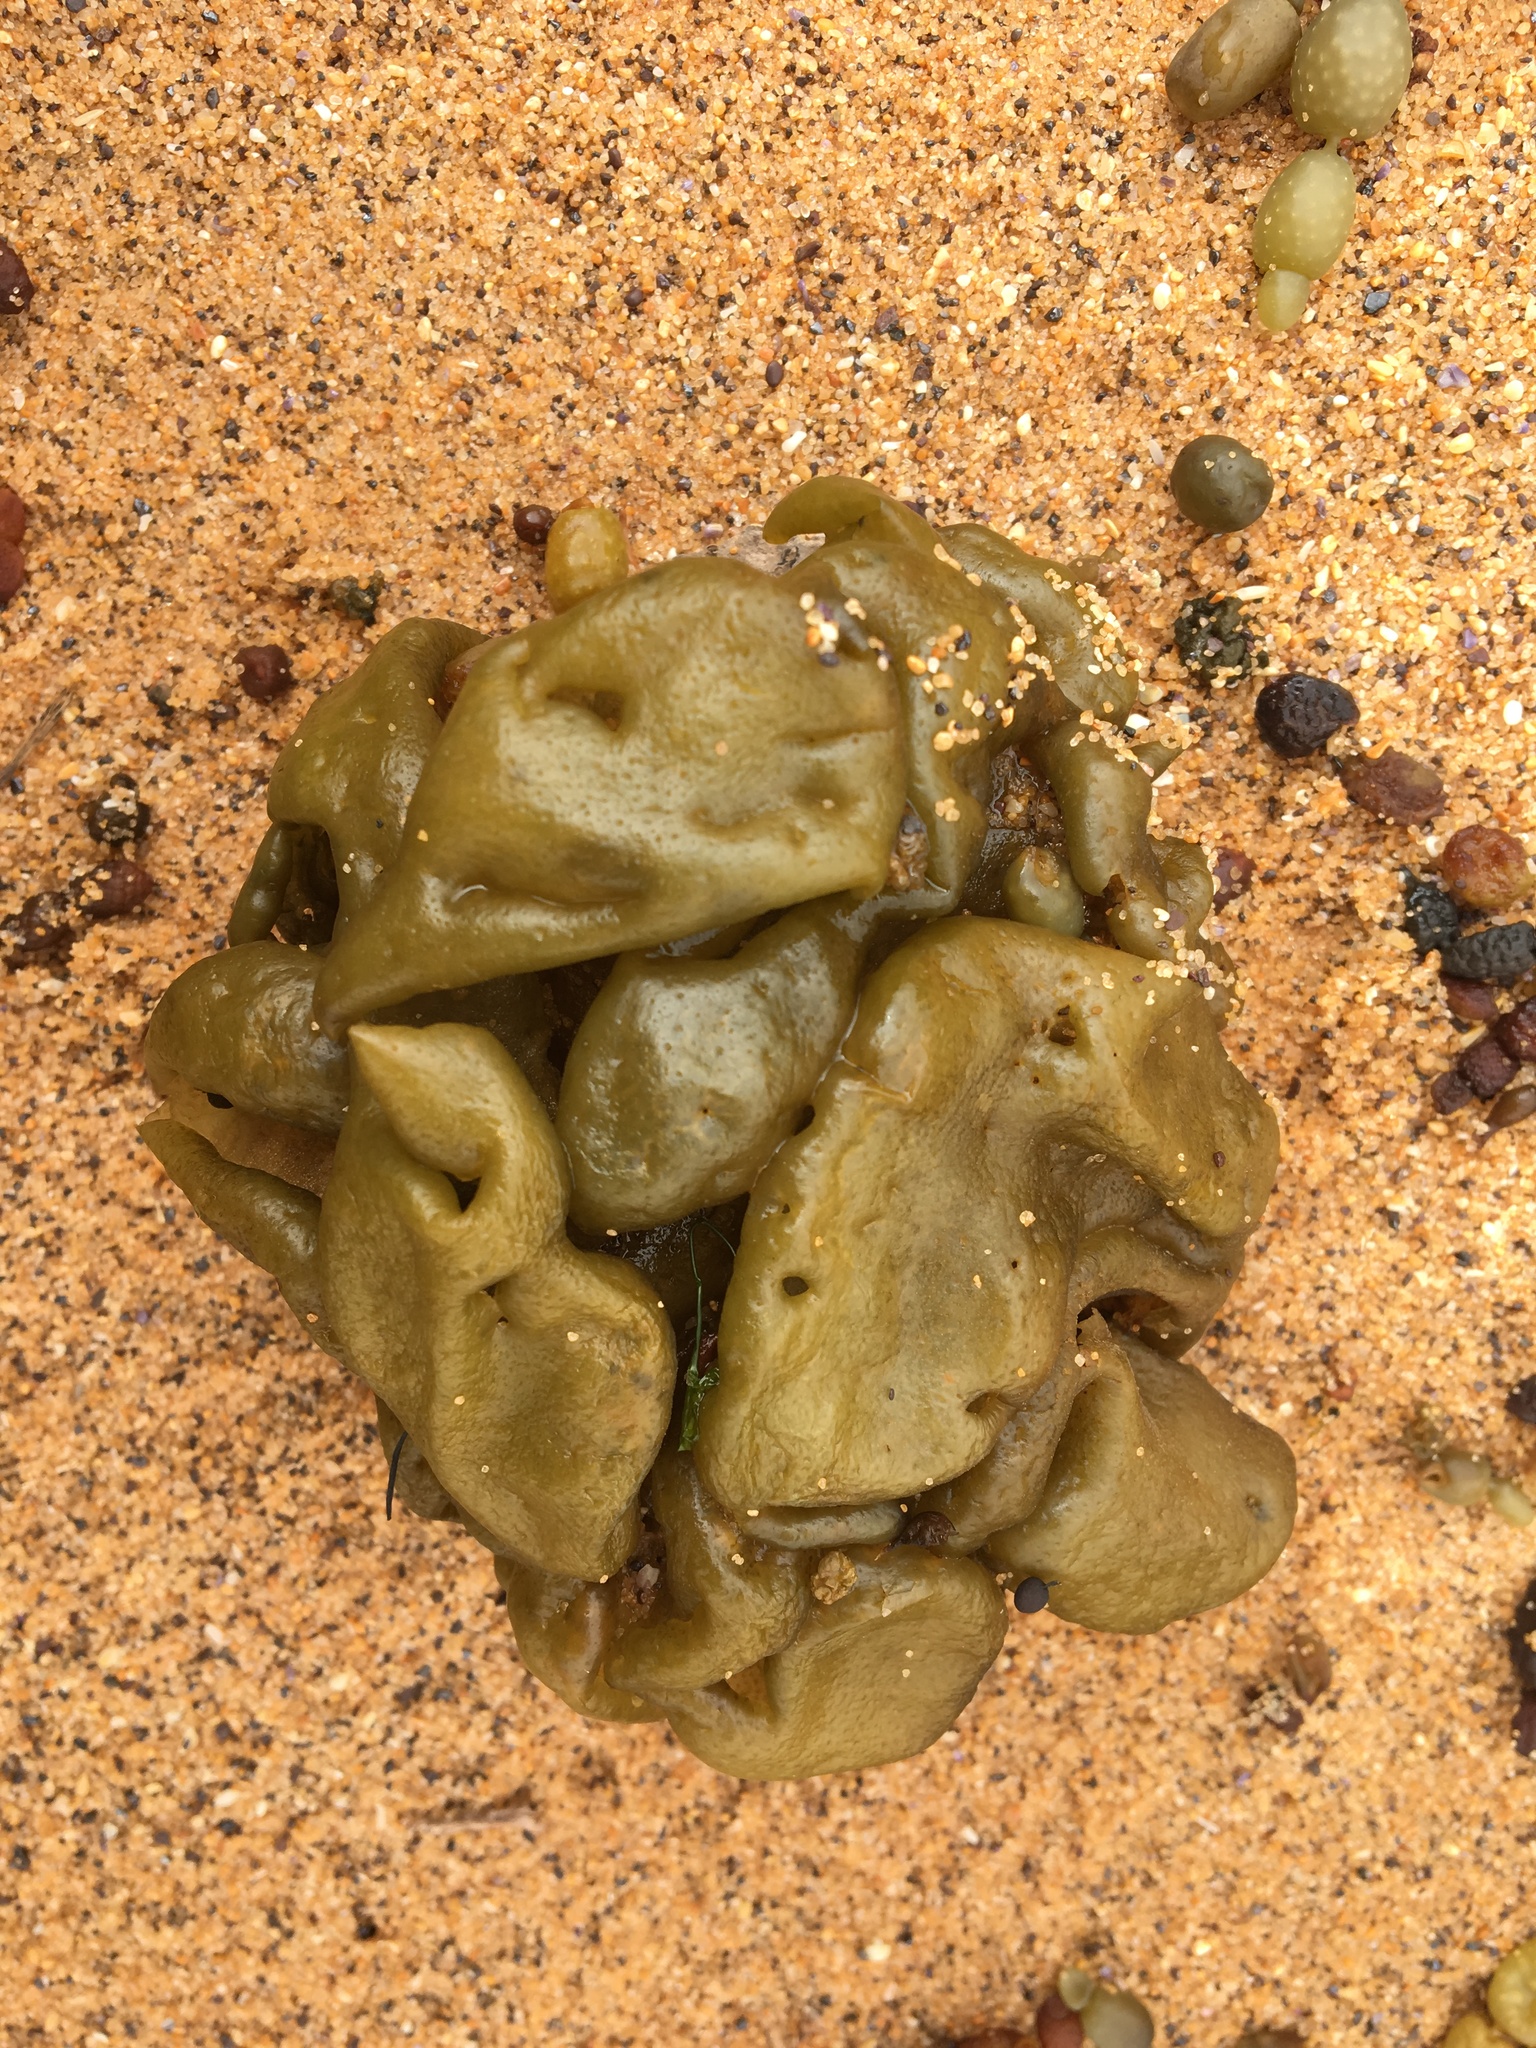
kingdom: Chromista
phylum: Ochrophyta
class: Phaeophyceae
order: Scytosiphonales
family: Scytosiphonaceae
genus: Colpomenia
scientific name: Colpomenia sinuosa
